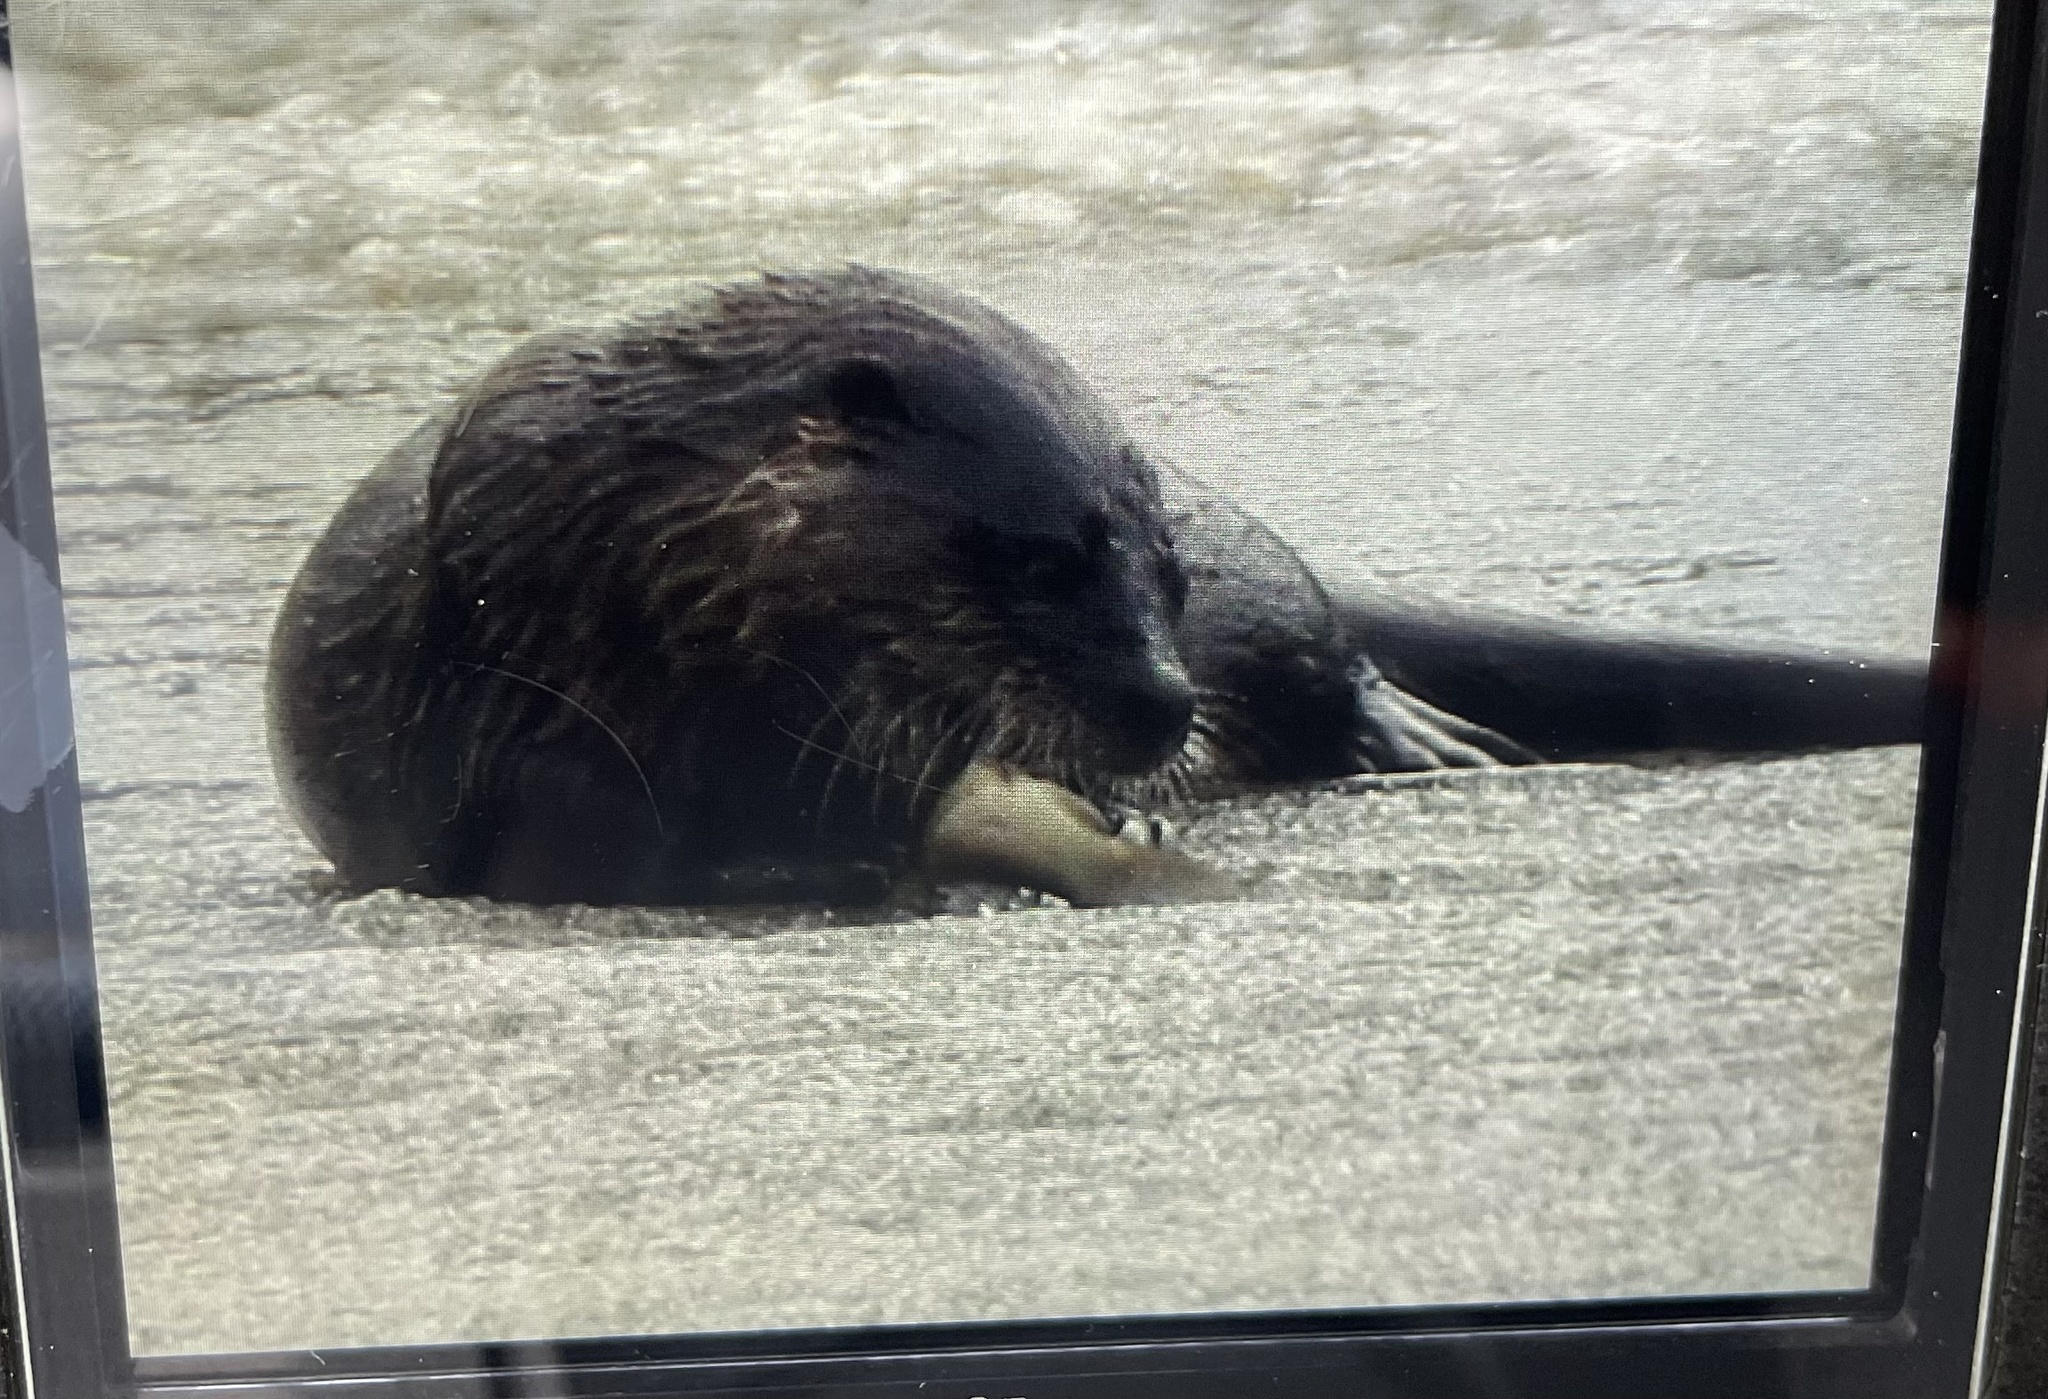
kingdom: Animalia
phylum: Chordata
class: Mammalia
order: Carnivora
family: Mustelidae
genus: Lontra
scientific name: Lontra canadensis
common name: North american river otter
